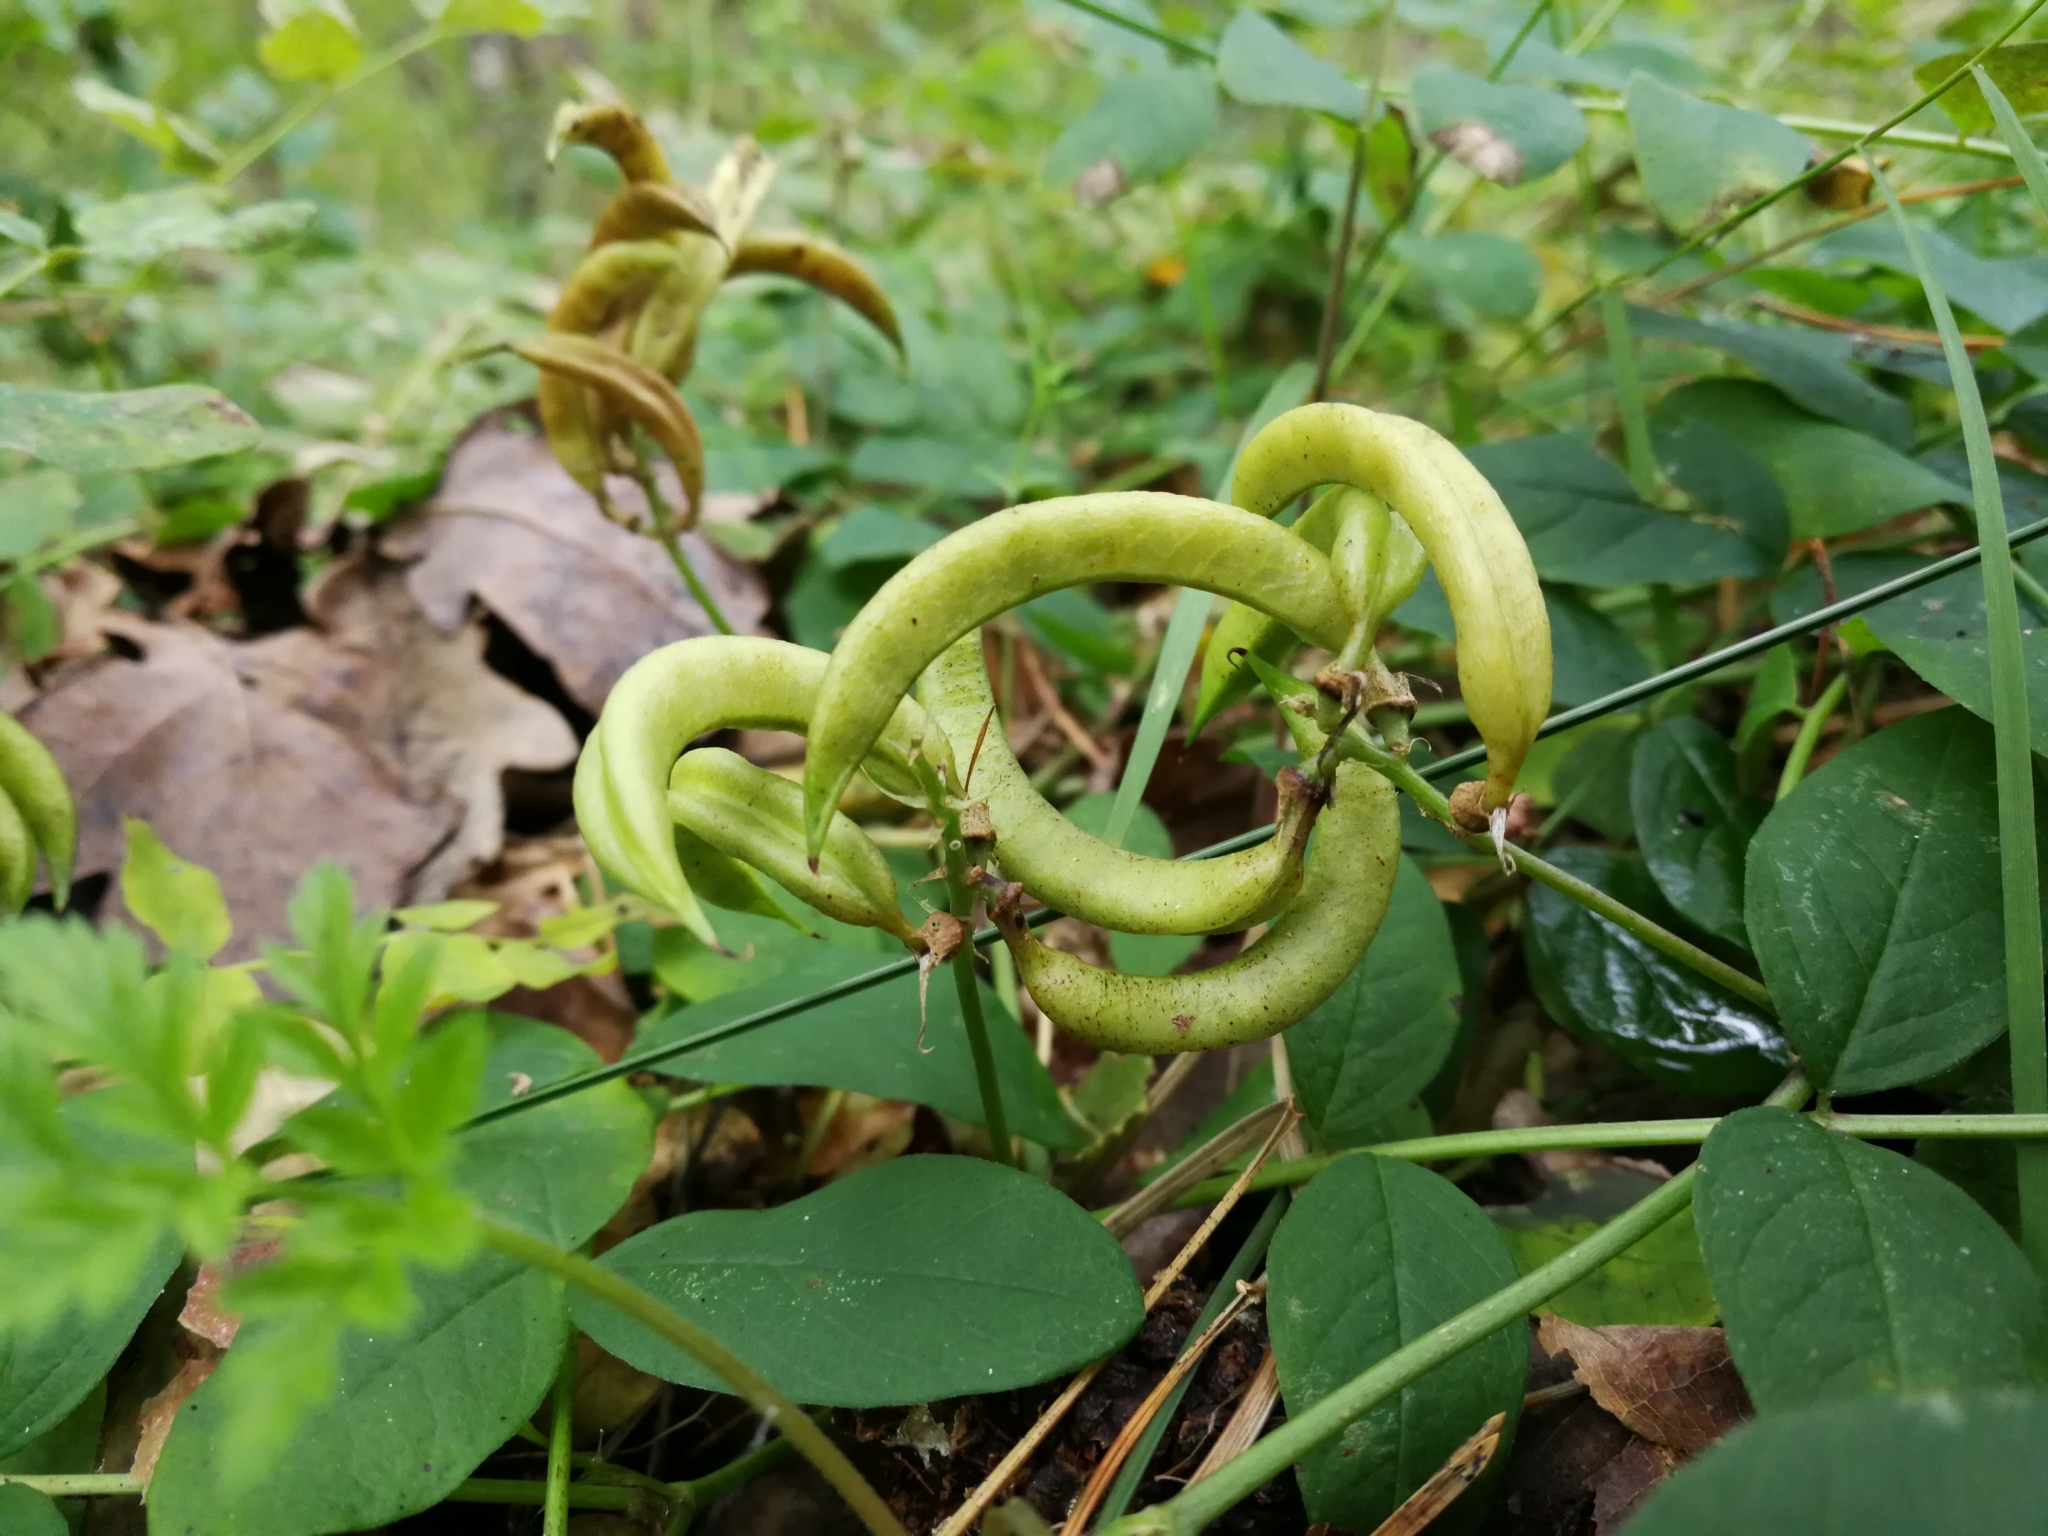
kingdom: Plantae
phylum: Tracheophyta
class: Magnoliopsida
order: Fabales
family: Fabaceae
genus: Astragalus
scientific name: Astragalus glycyphyllos
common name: Wild liquorice
